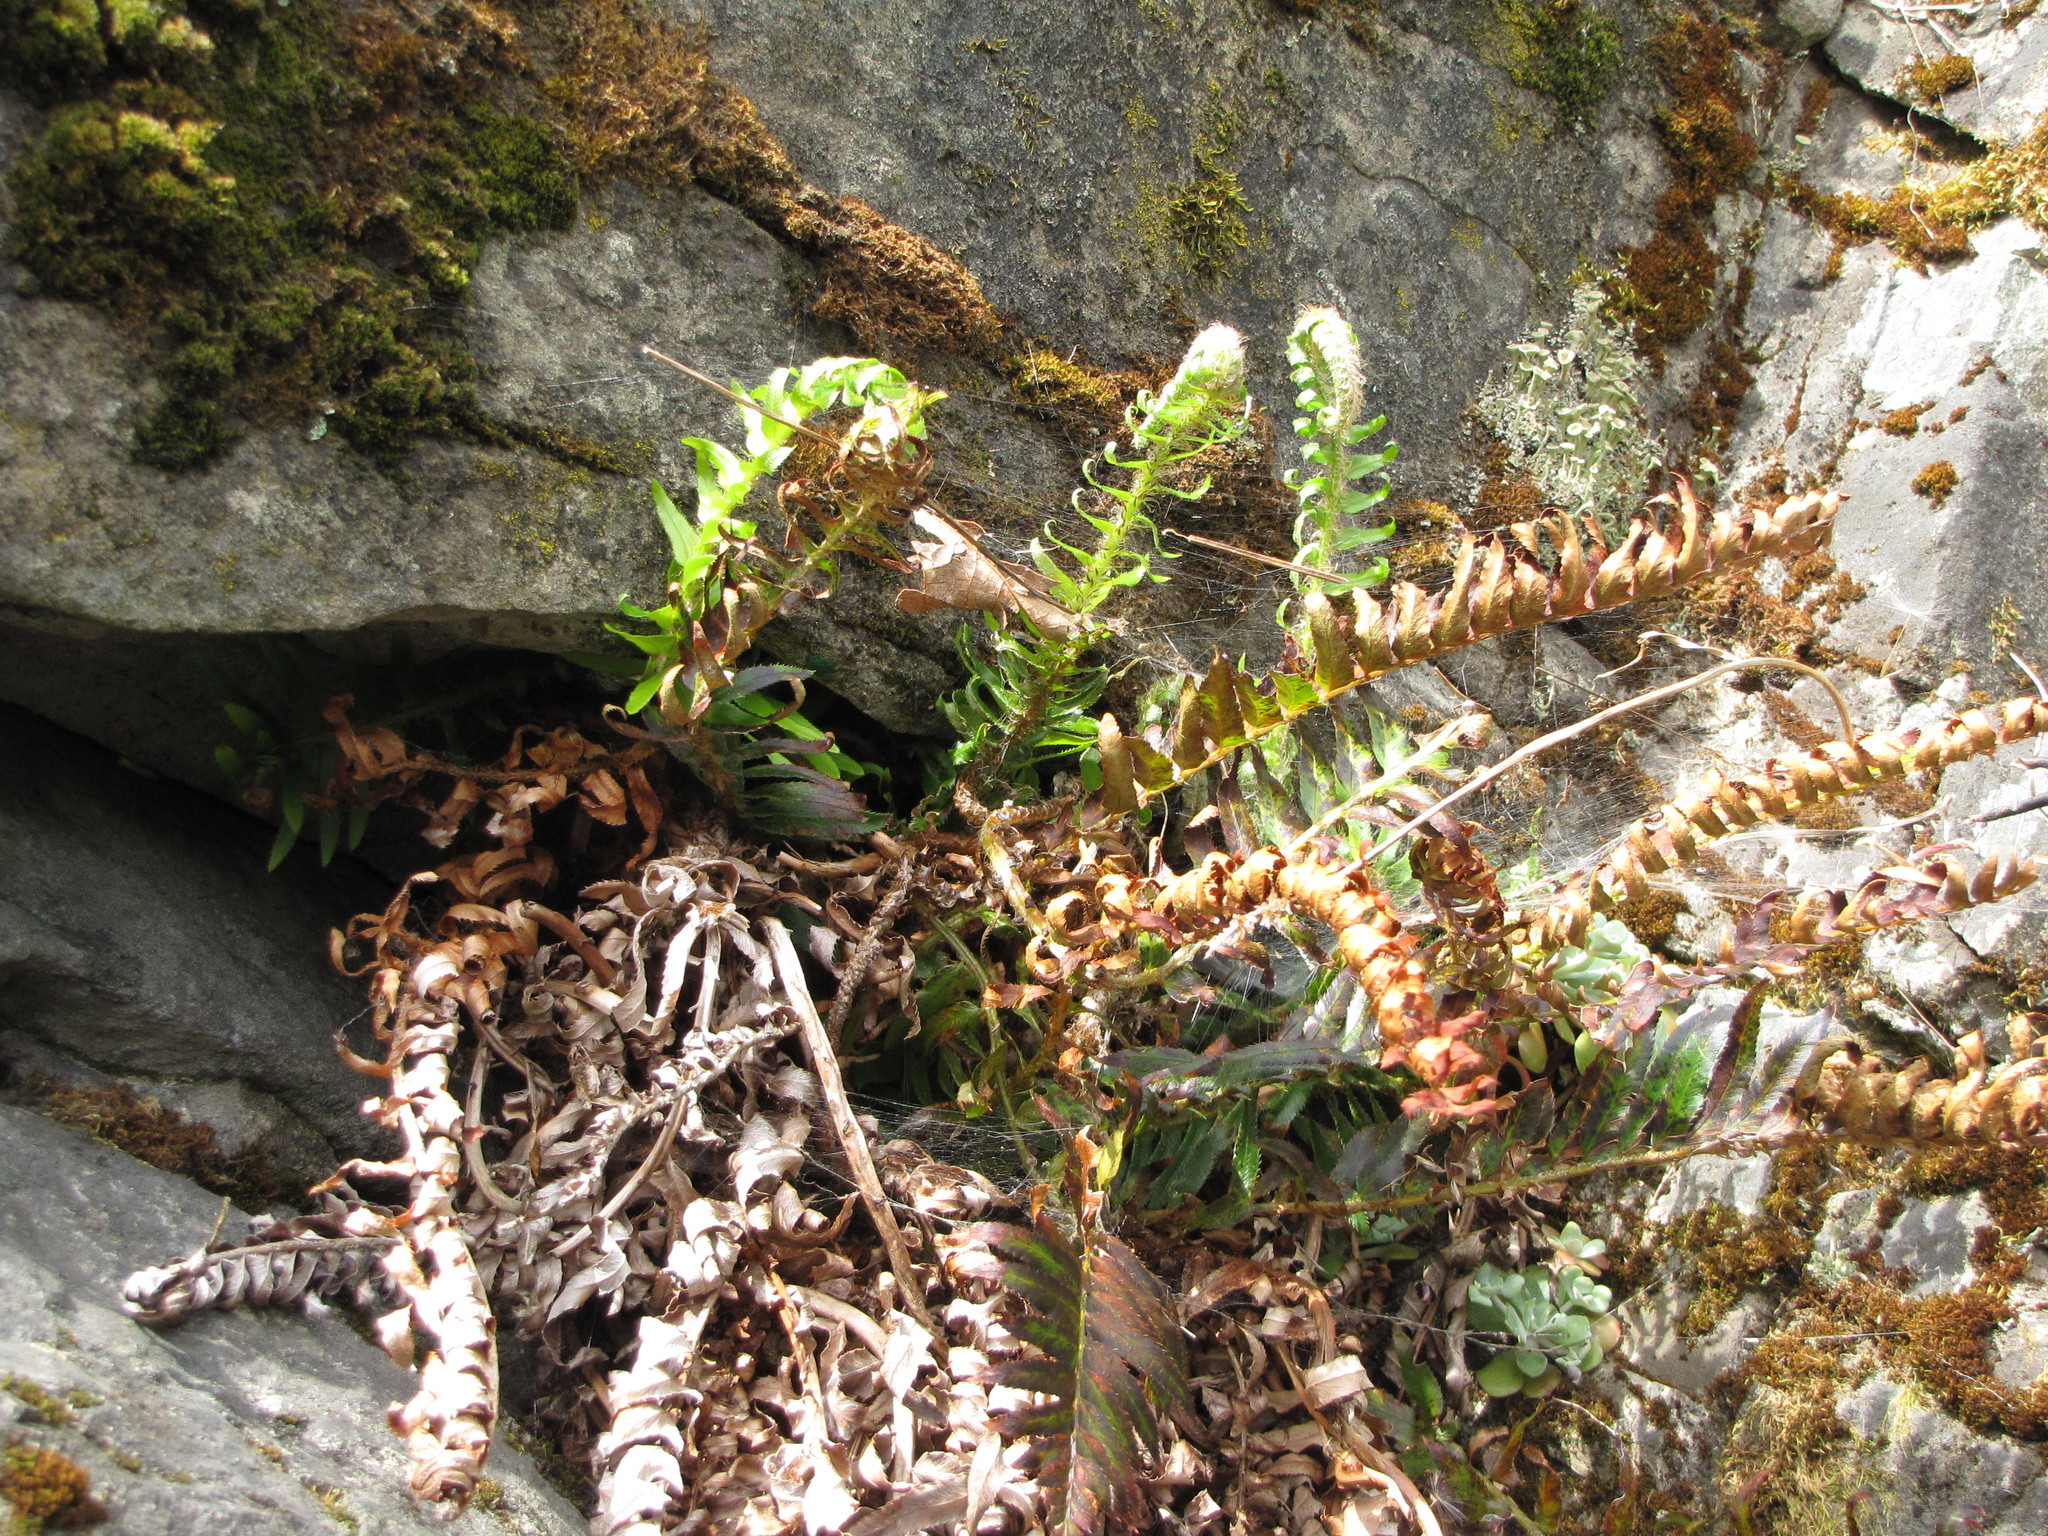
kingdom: Plantae
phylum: Tracheophyta
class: Polypodiopsida
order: Polypodiales
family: Dryopteridaceae
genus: Polystichum
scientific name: Polystichum munitum
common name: Western sword-fern
